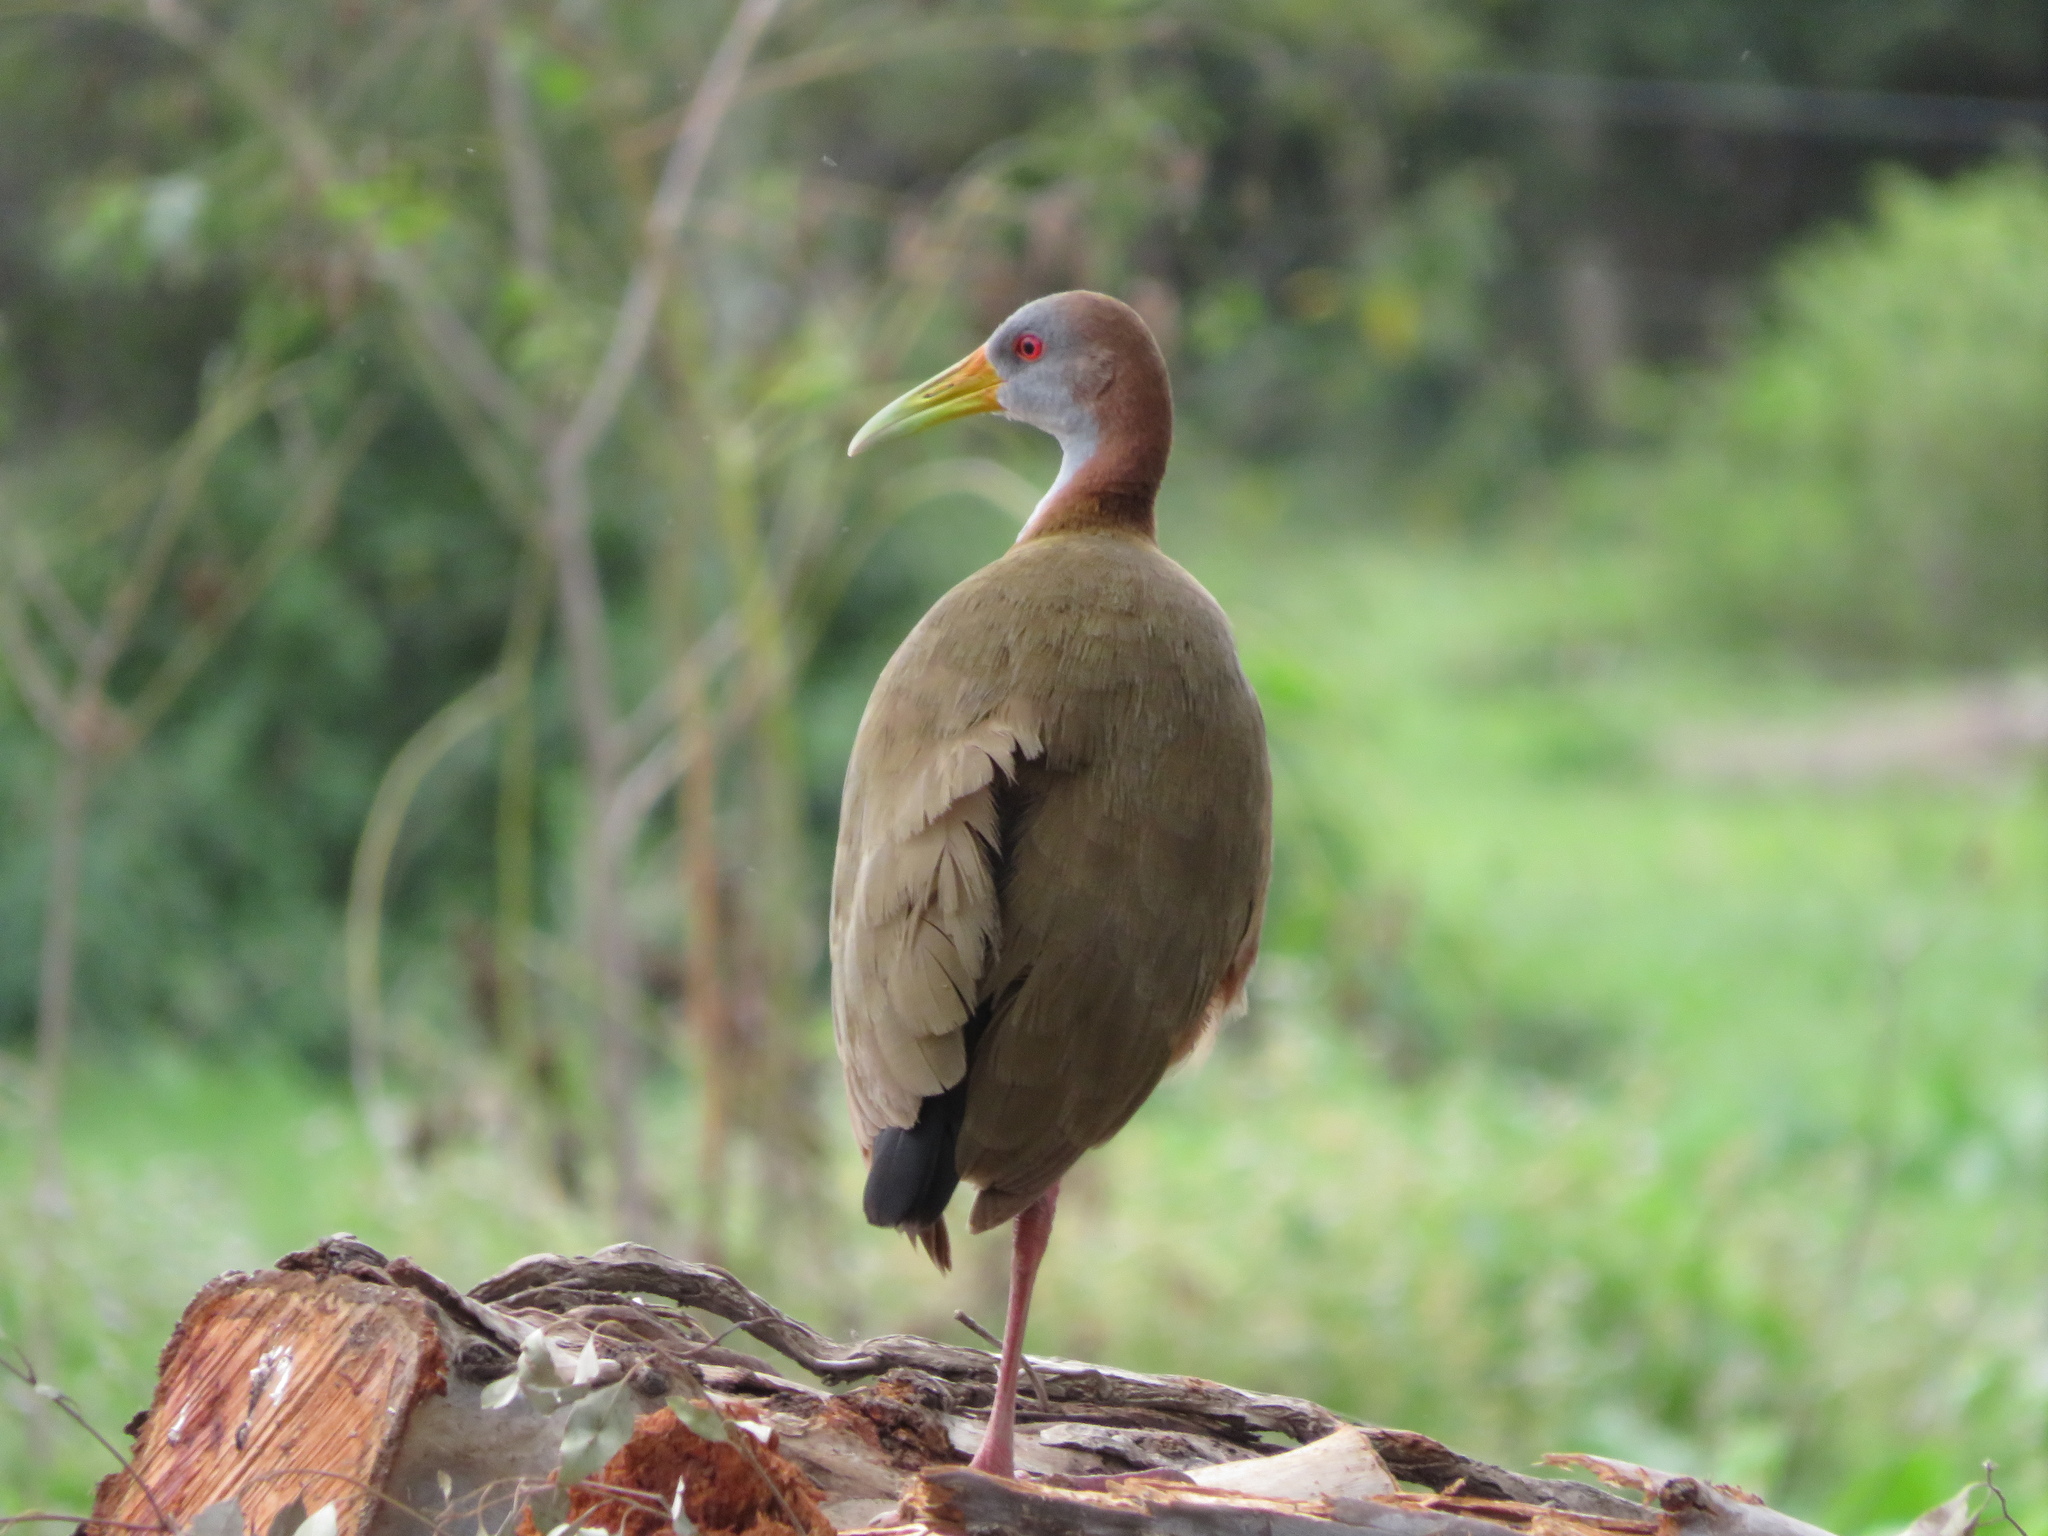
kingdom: Animalia
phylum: Chordata
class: Aves
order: Gruiformes
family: Rallidae
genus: Aramides
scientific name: Aramides ypecaha
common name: Giant wood rail
